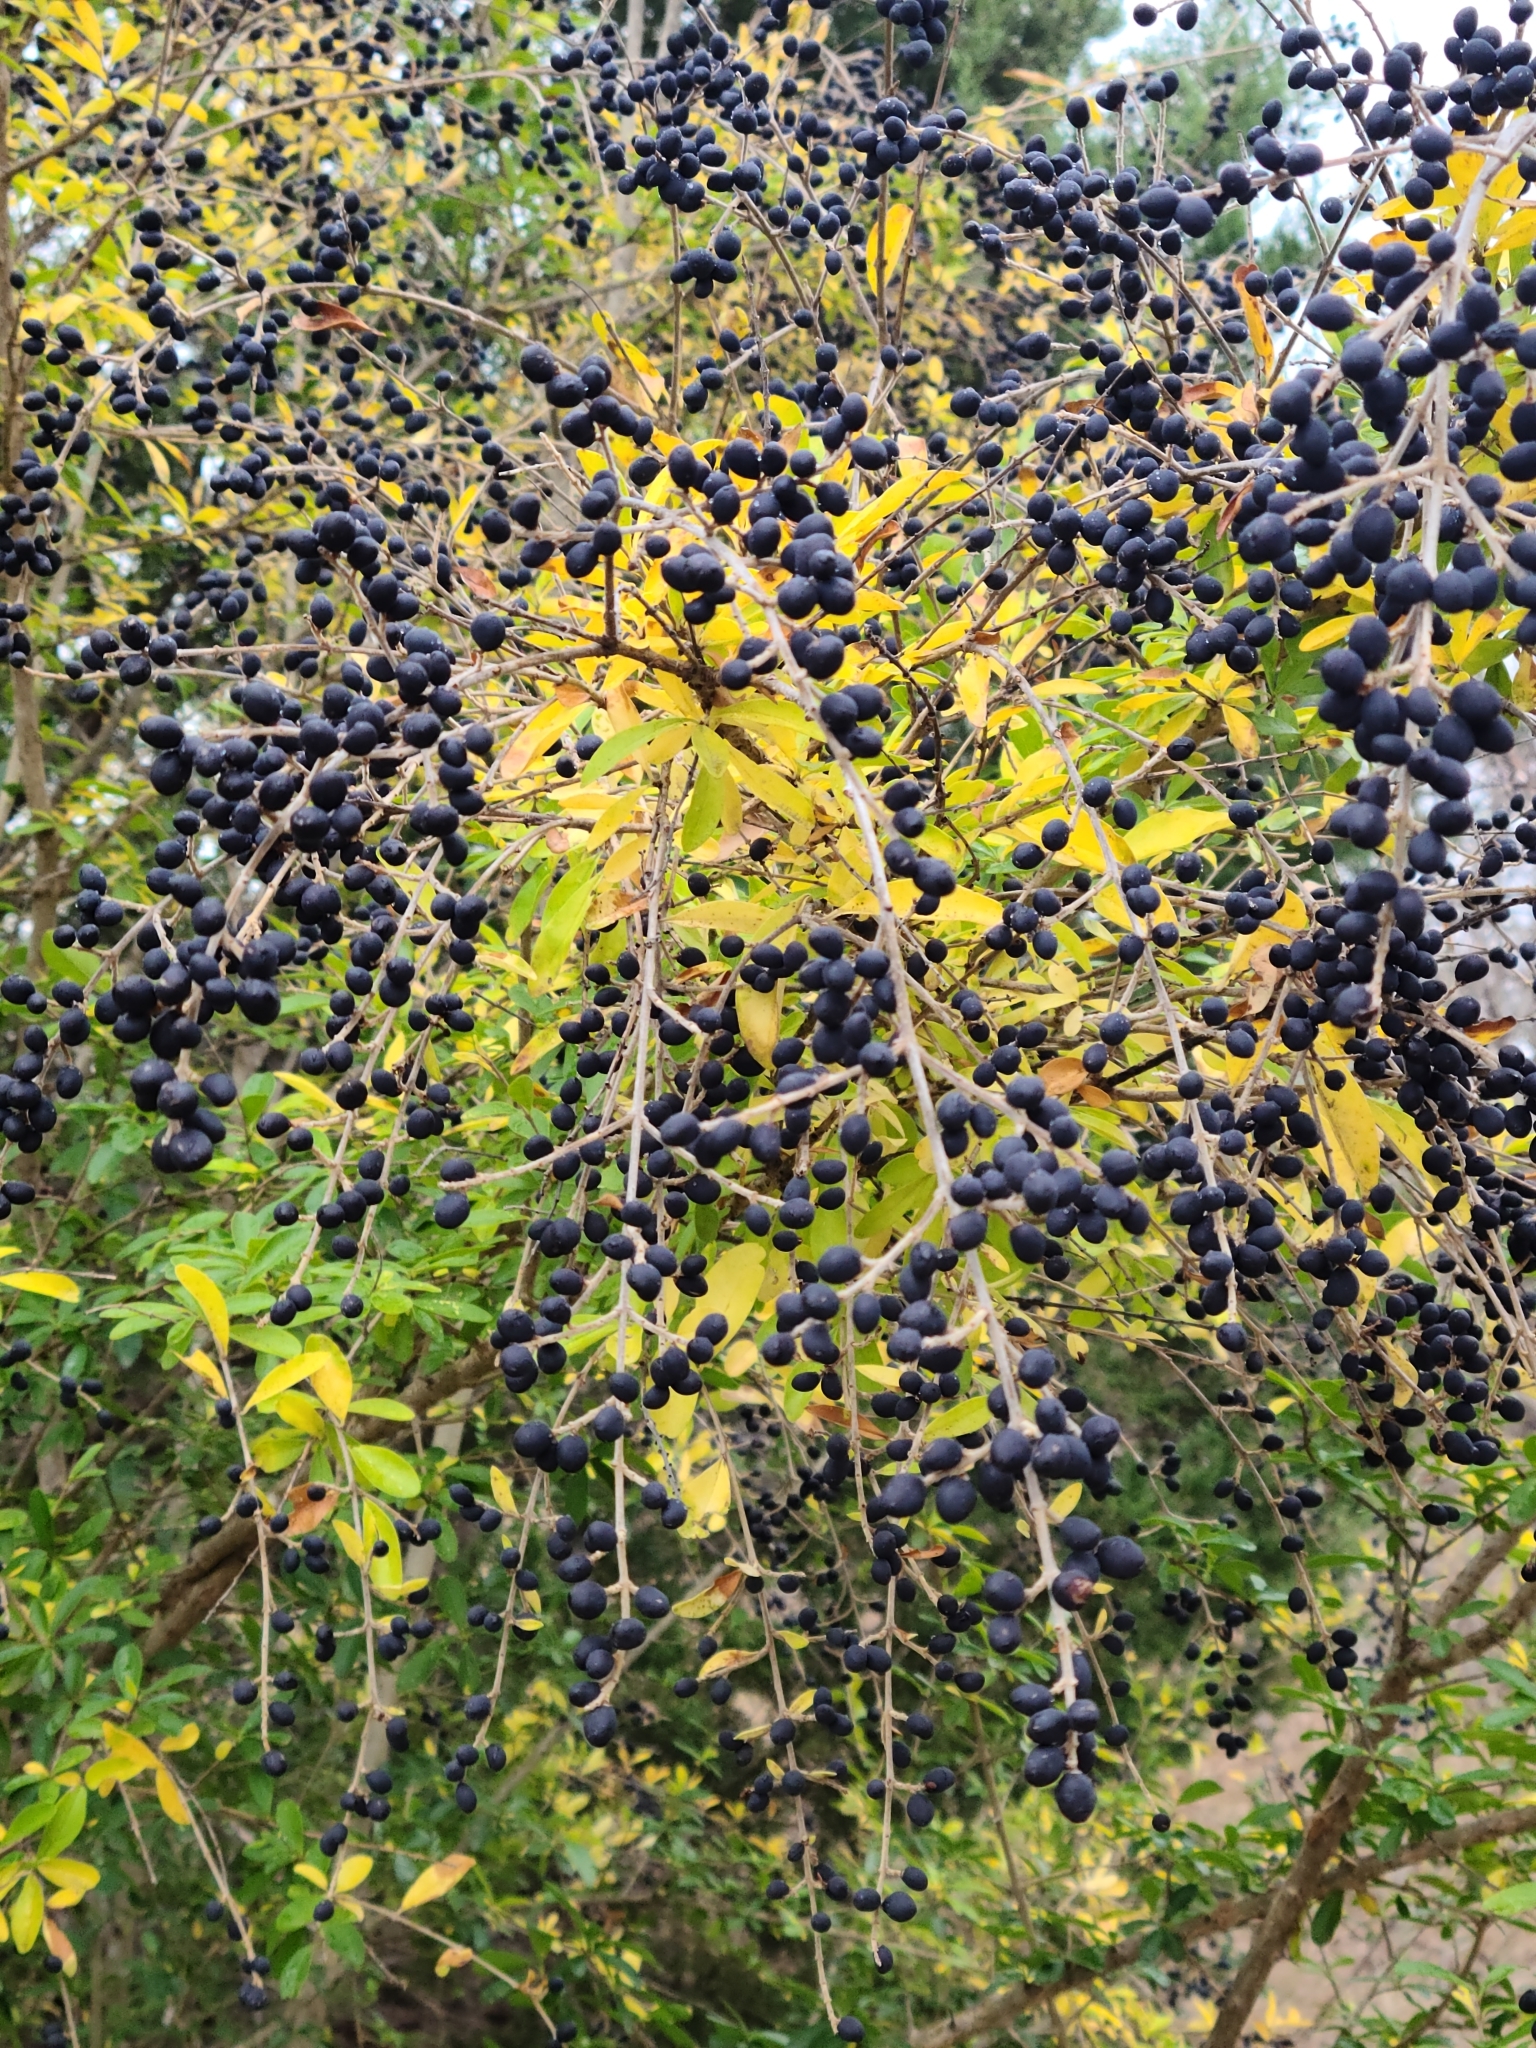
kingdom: Plantae
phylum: Tracheophyta
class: Magnoliopsida
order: Lamiales
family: Oleaceae
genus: Ligustrum
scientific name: Ligustrum quihoui
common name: Waxyleaf privet
